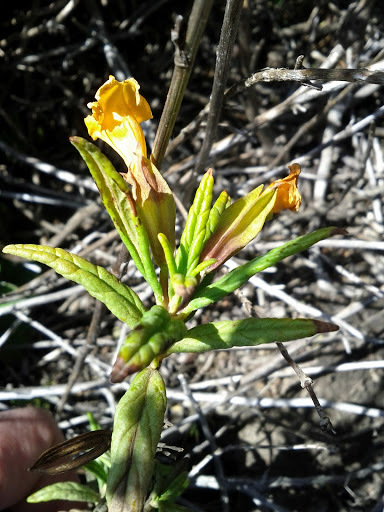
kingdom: Plantae
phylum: Tracheophyta
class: Magnoliopsida
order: Lamiales
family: Phrymaceae
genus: Diplacus
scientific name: Diplacus aurantiacus
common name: Bush monkey-flower
